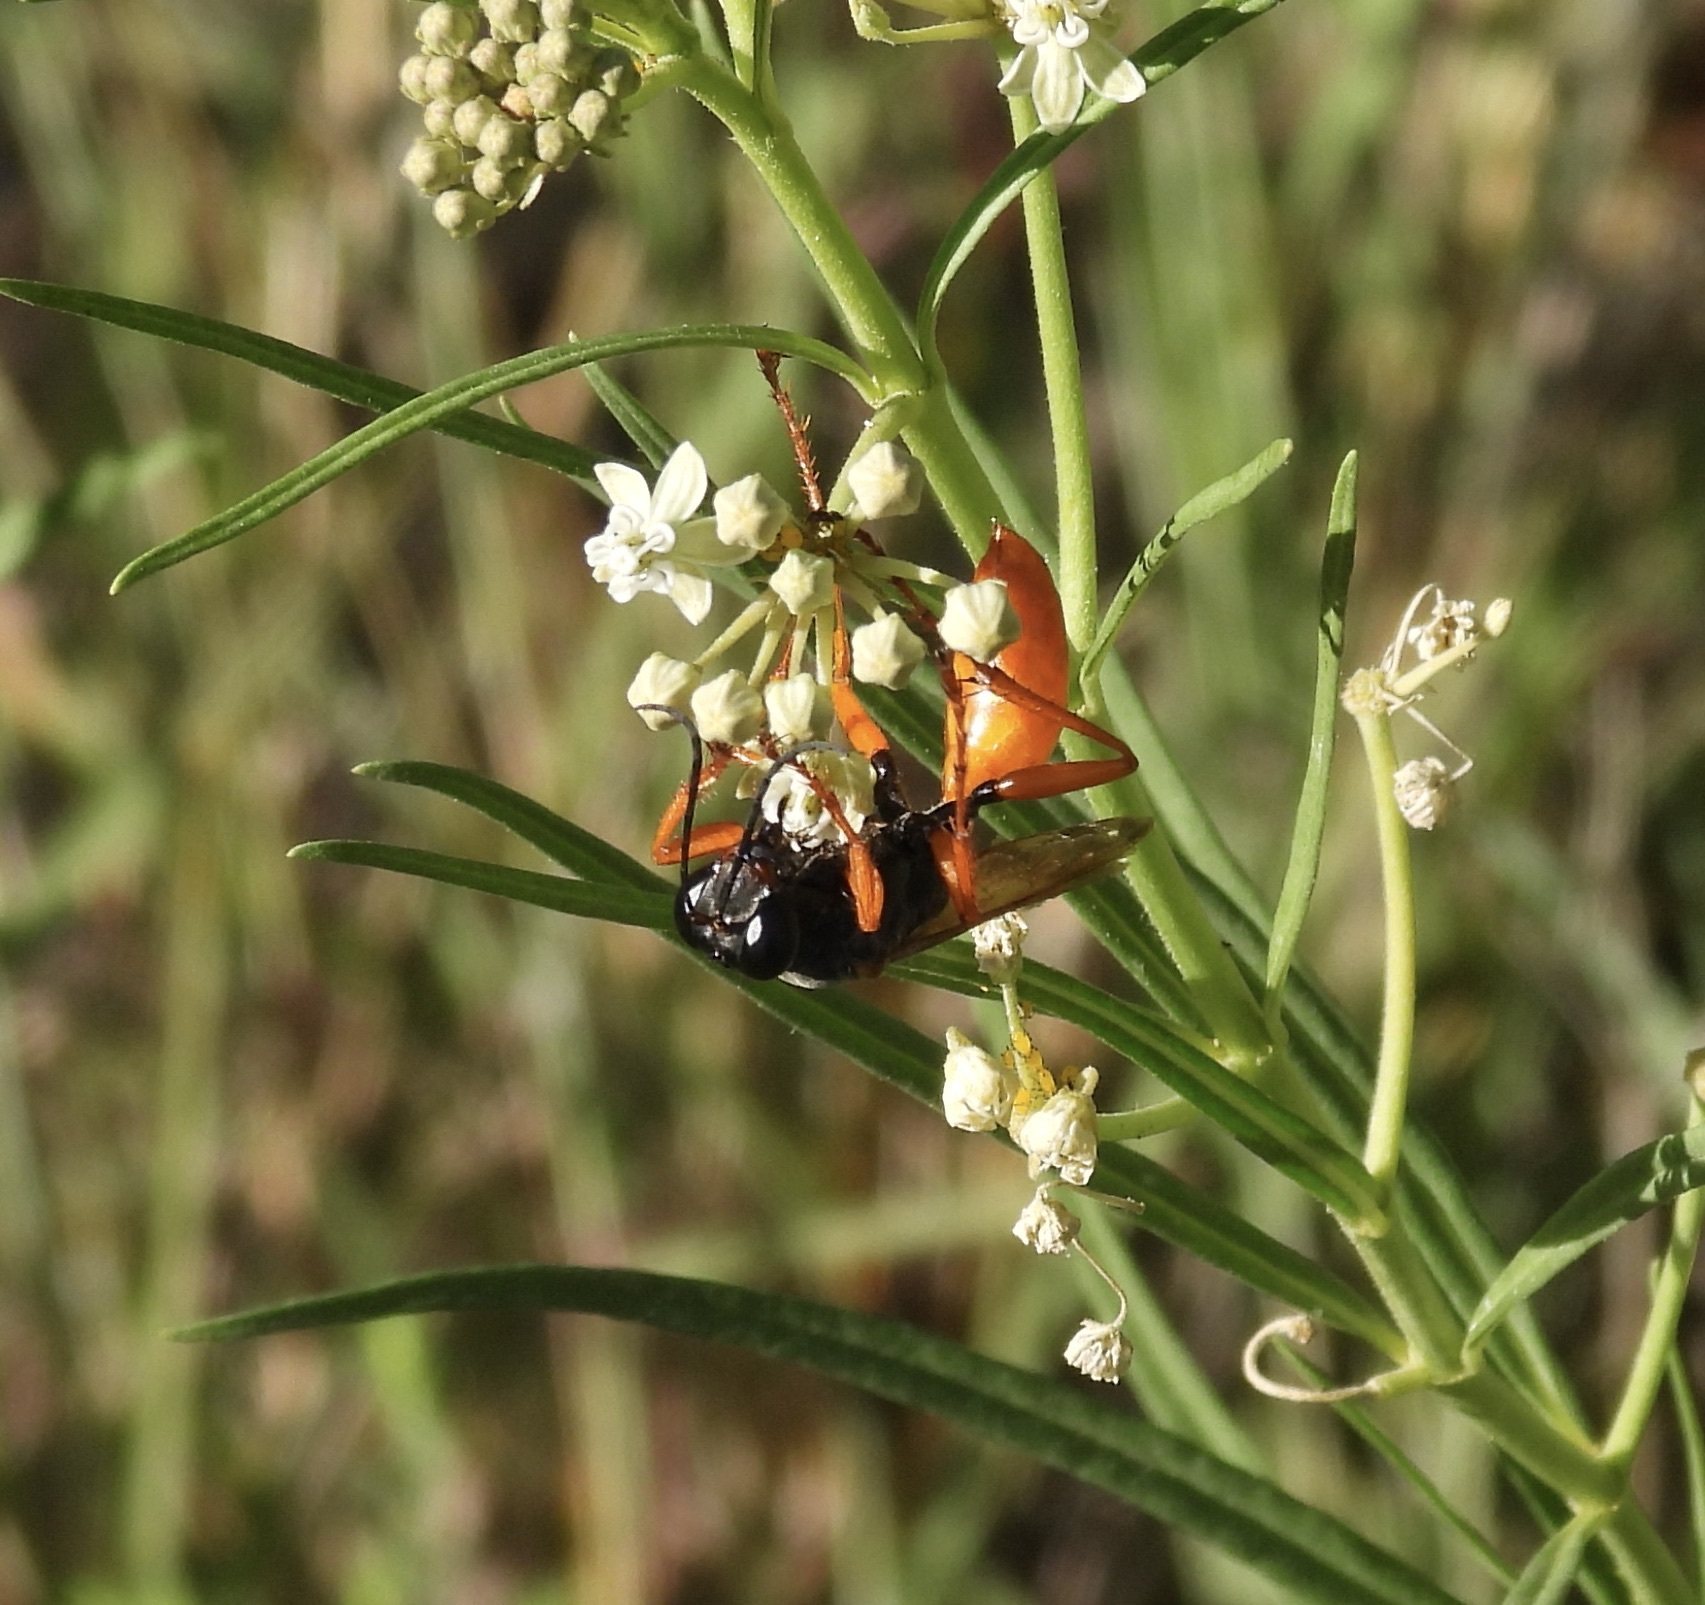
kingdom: Animalia
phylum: Arthropoda
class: Insecta
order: Hymenoptera
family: Sphecidae
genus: Sphex
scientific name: Sphex ashmeadi
